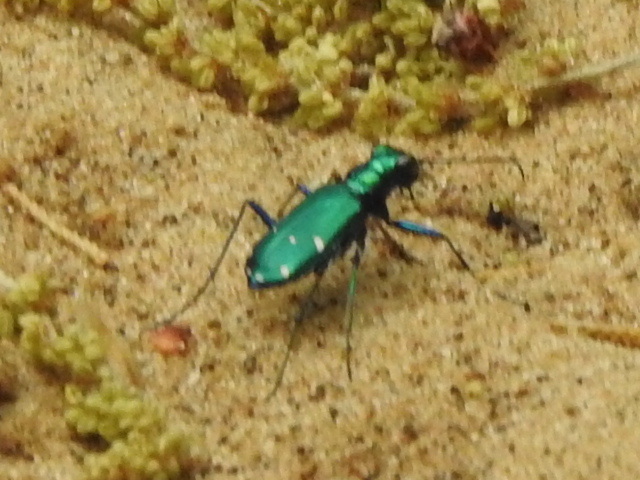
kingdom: Animalia
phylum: Arthropoda
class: Insecta
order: Coleoptera
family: Carabidae
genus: Cicindela
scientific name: Cicindela sexguttata
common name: Six-spotted tiger beetle
